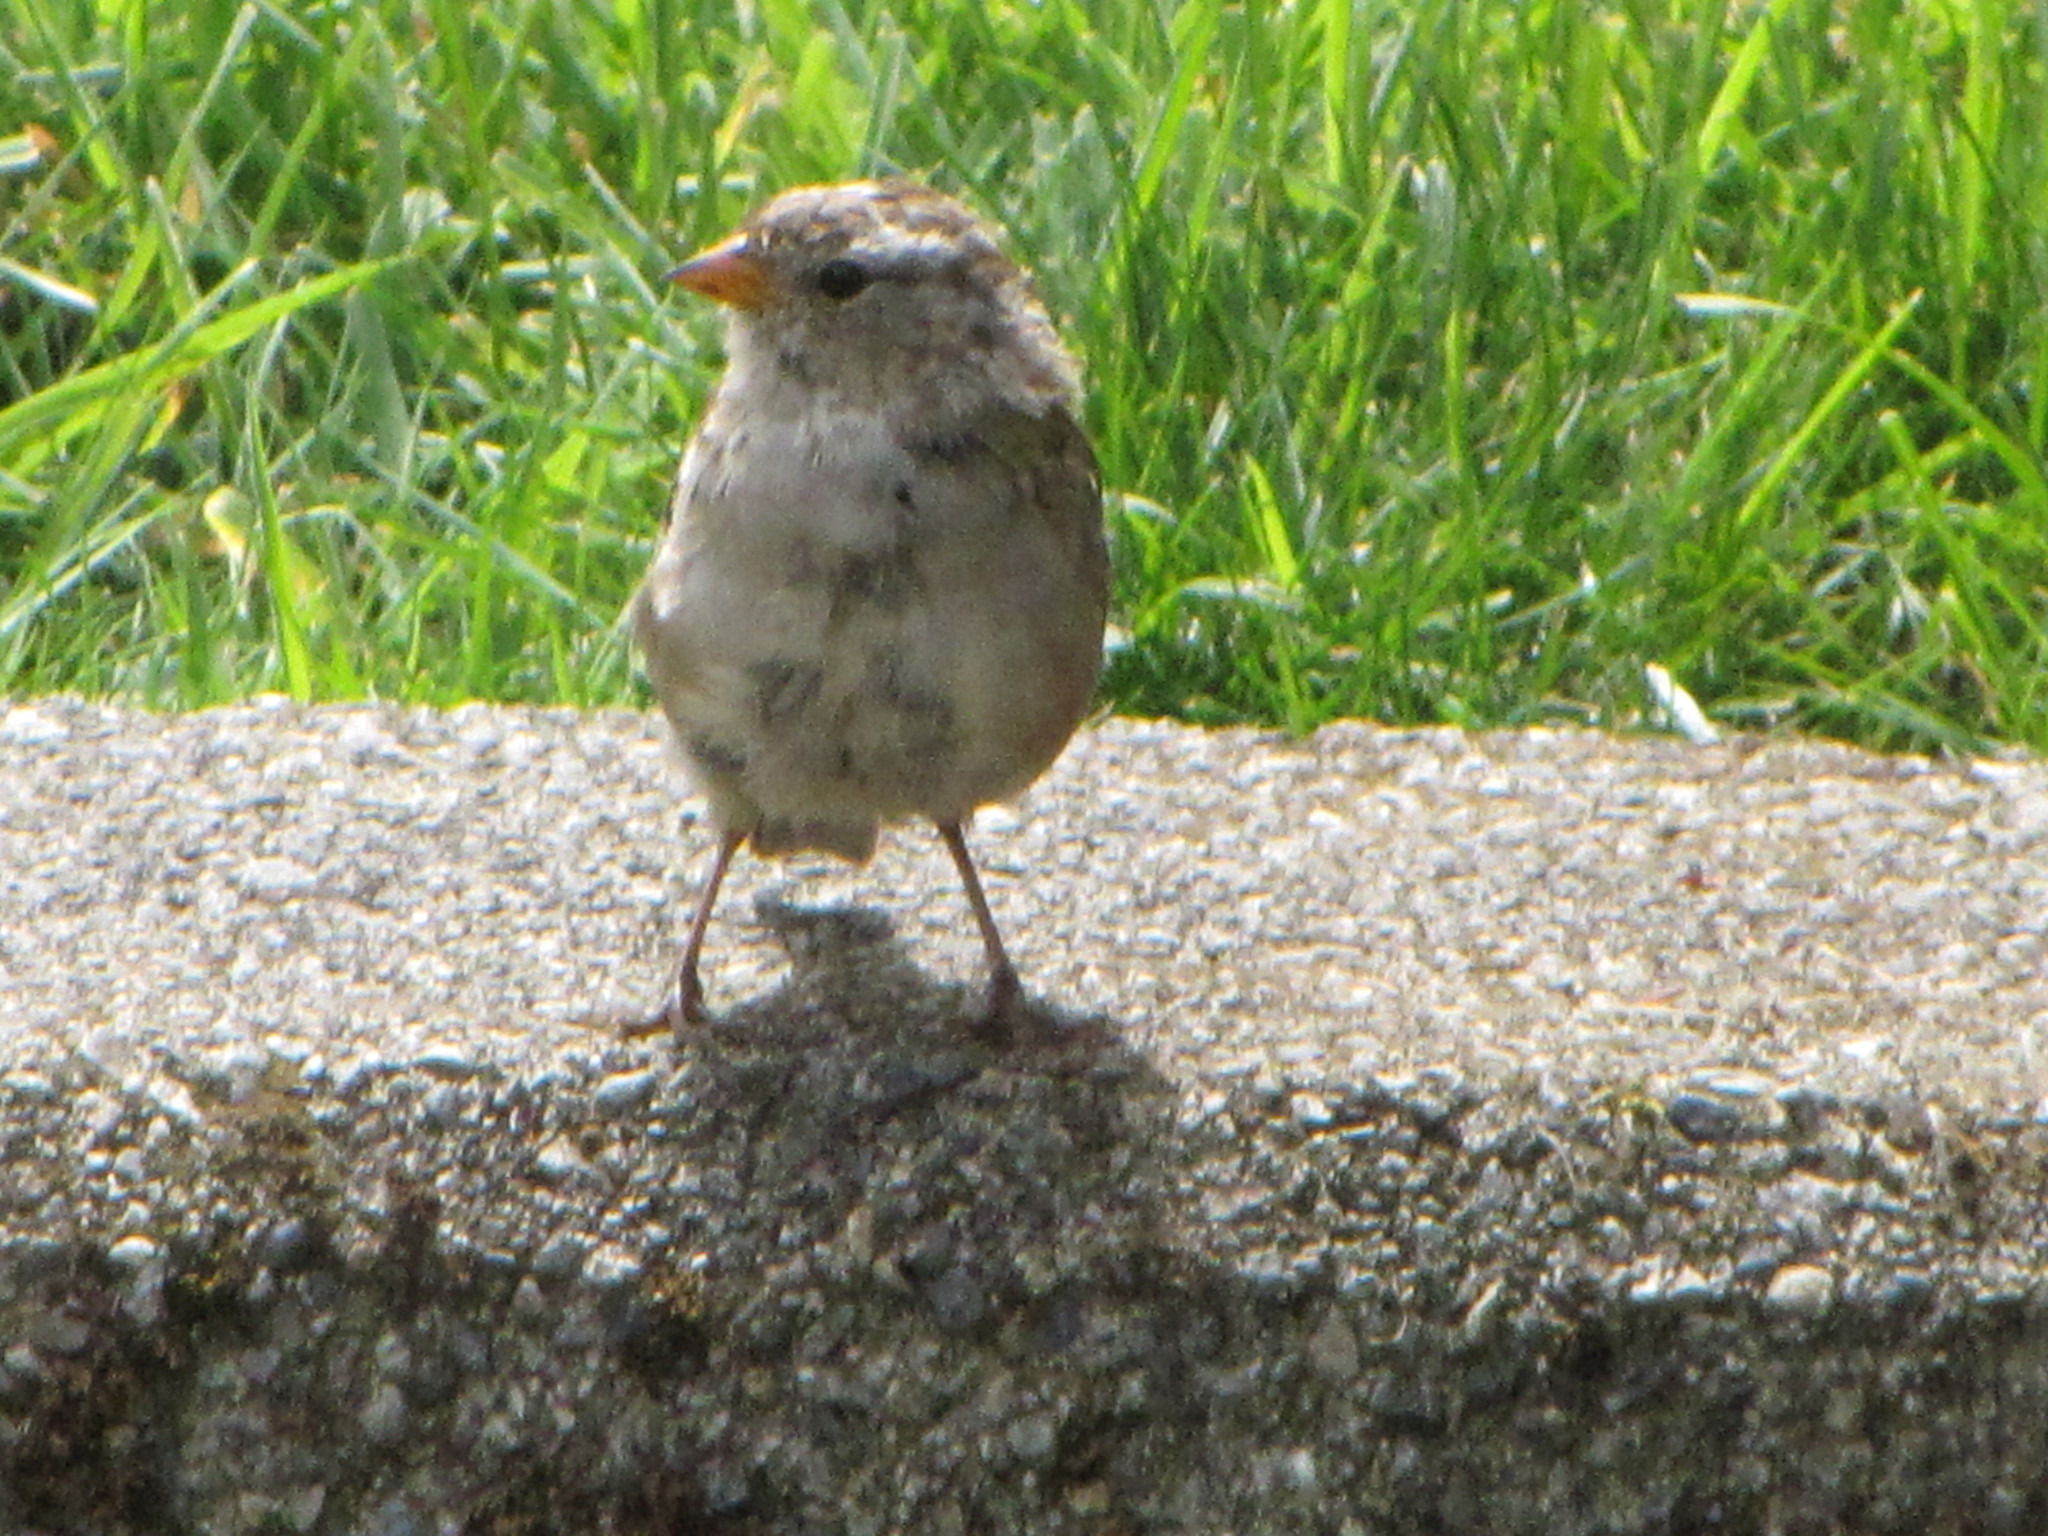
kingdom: Animalia
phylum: Chordata
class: Aves
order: Passeriformes
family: Passerellidae
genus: Zonotrichia
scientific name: Zonotrichia leucophrys
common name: White-crowned sparrow
